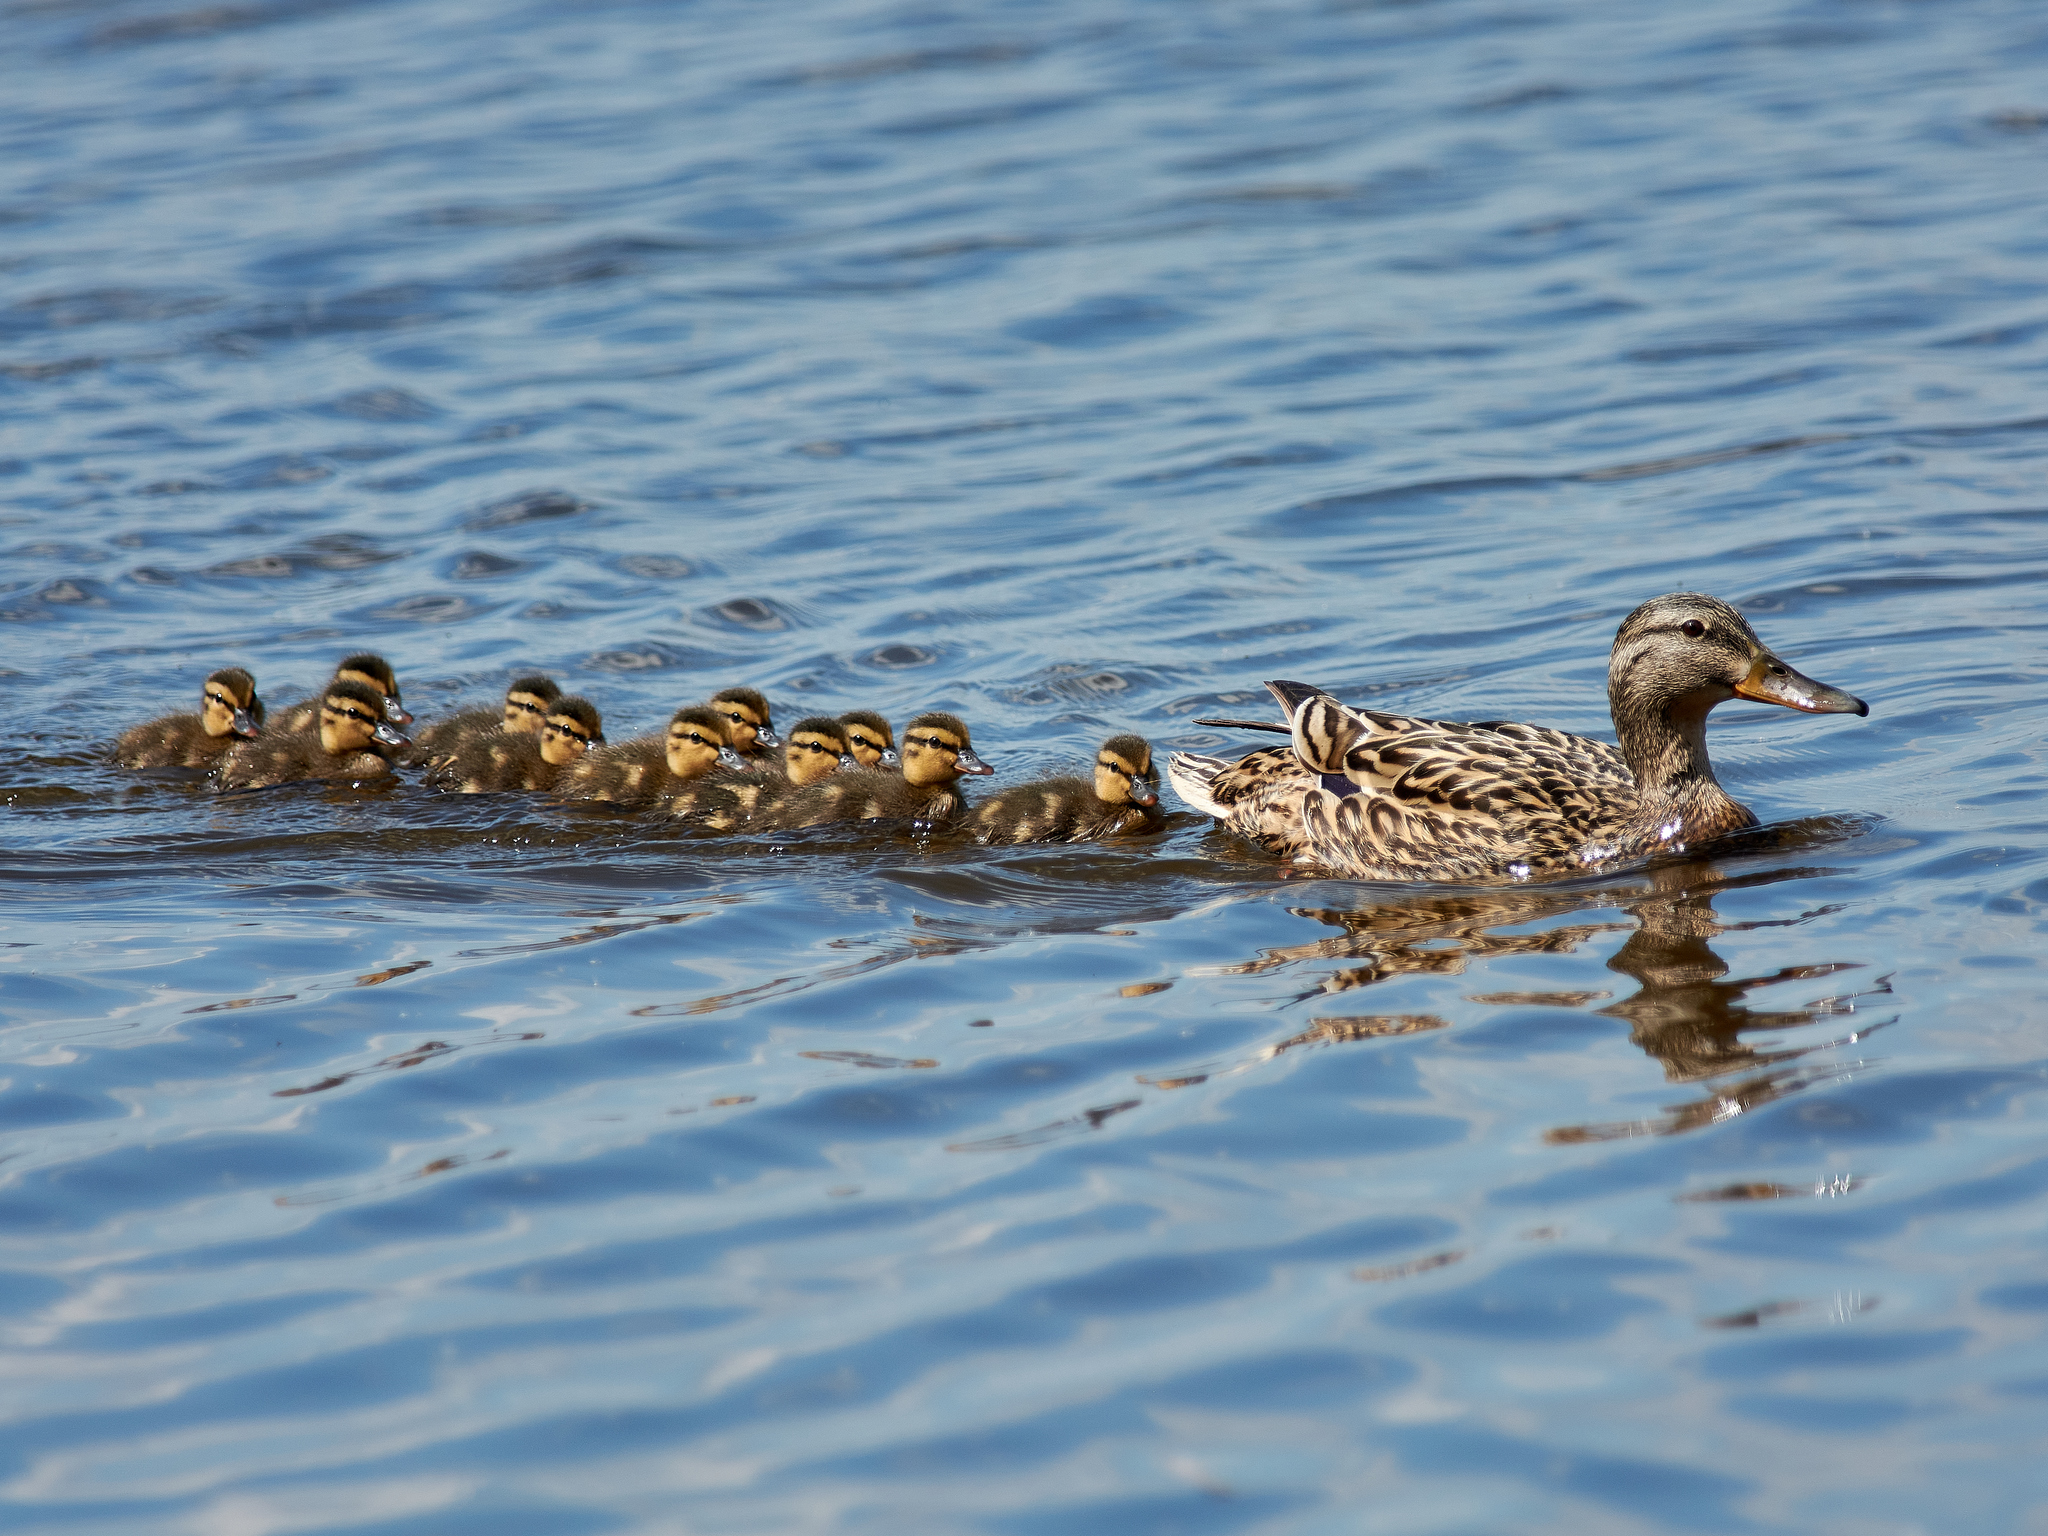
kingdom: Animalia
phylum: Chordata
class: Aves
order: Anseriformes
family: Anatidae
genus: Anas
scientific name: Anas platyrhynchos
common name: Mallard
